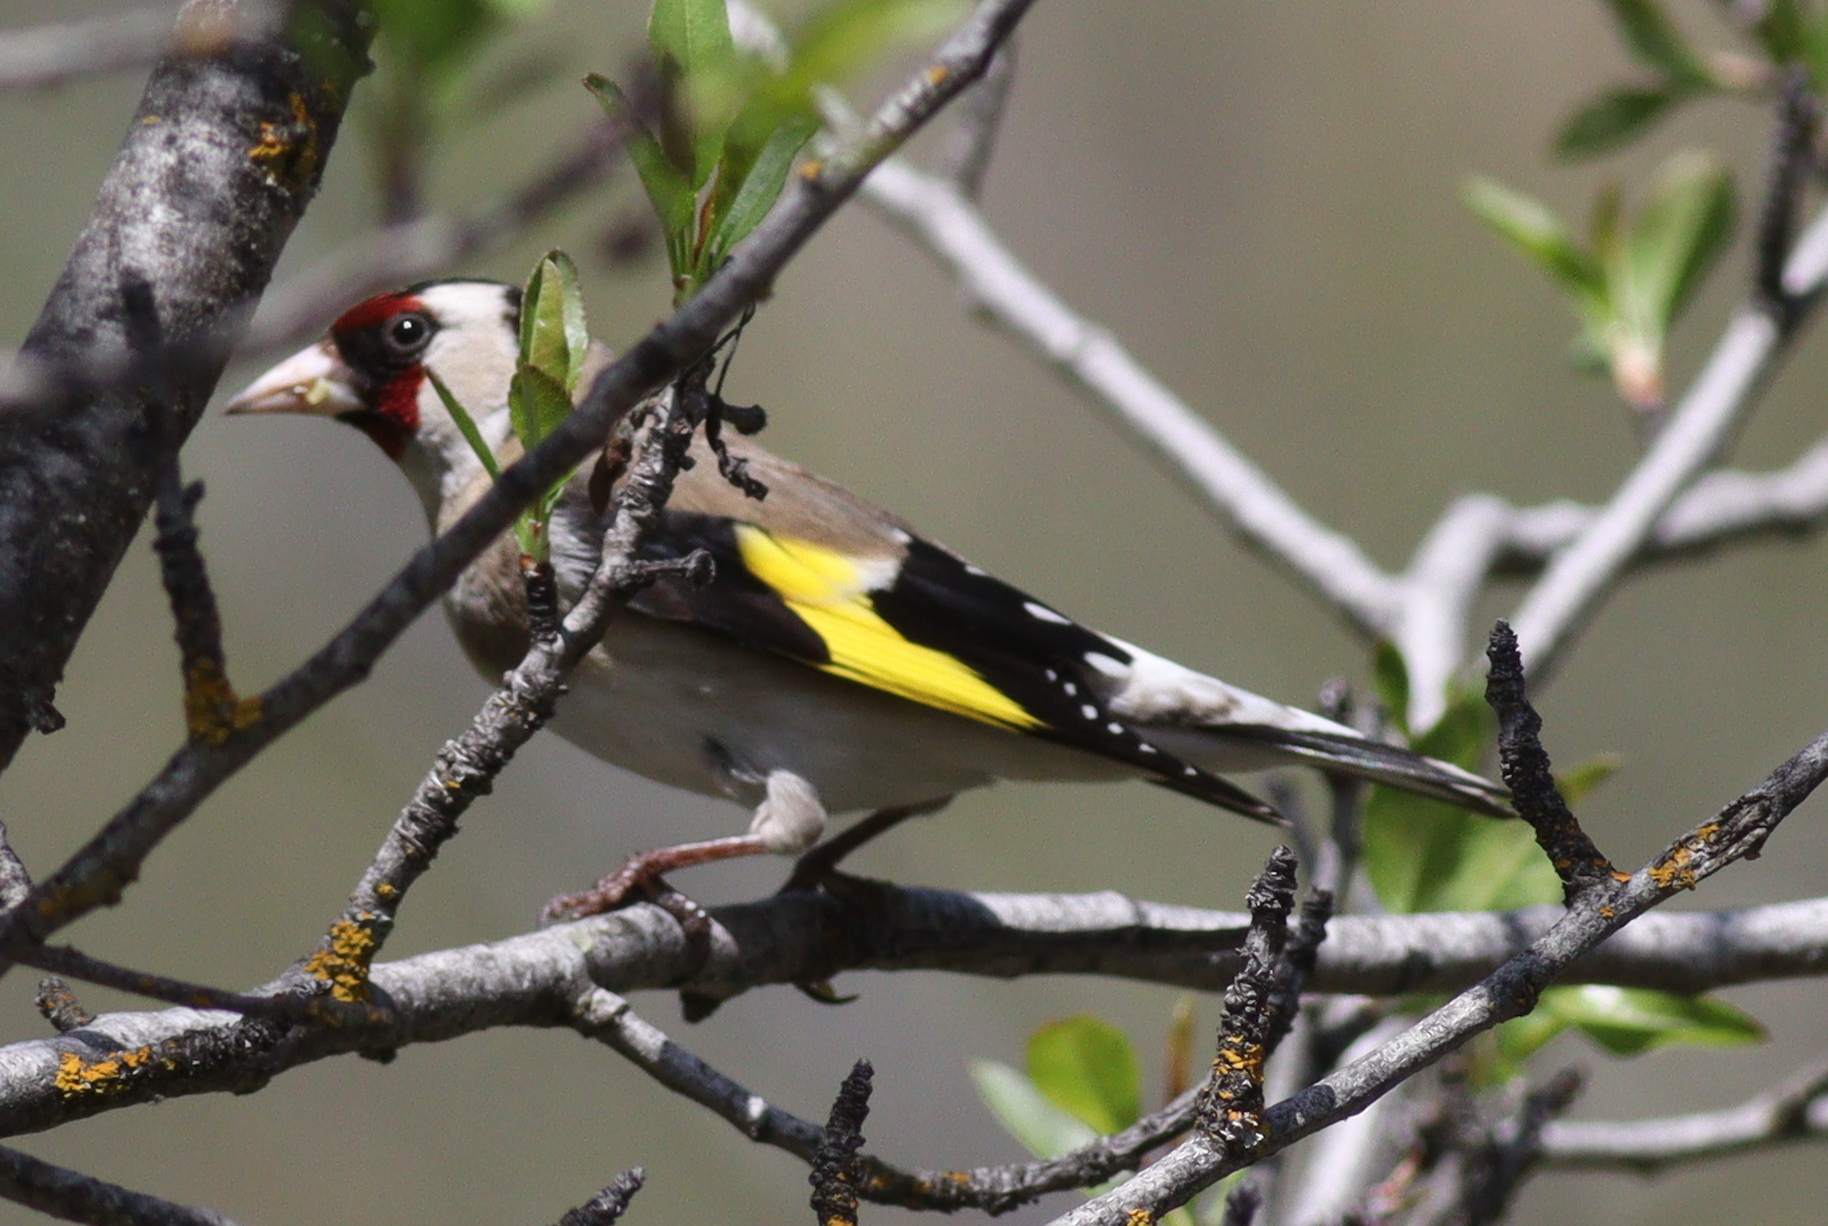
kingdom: Animalia
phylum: Chordata
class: Aves
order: Passeriformes
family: Fringillidae
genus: Carduelis
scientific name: Carduelis carduelis
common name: European goldfinch
